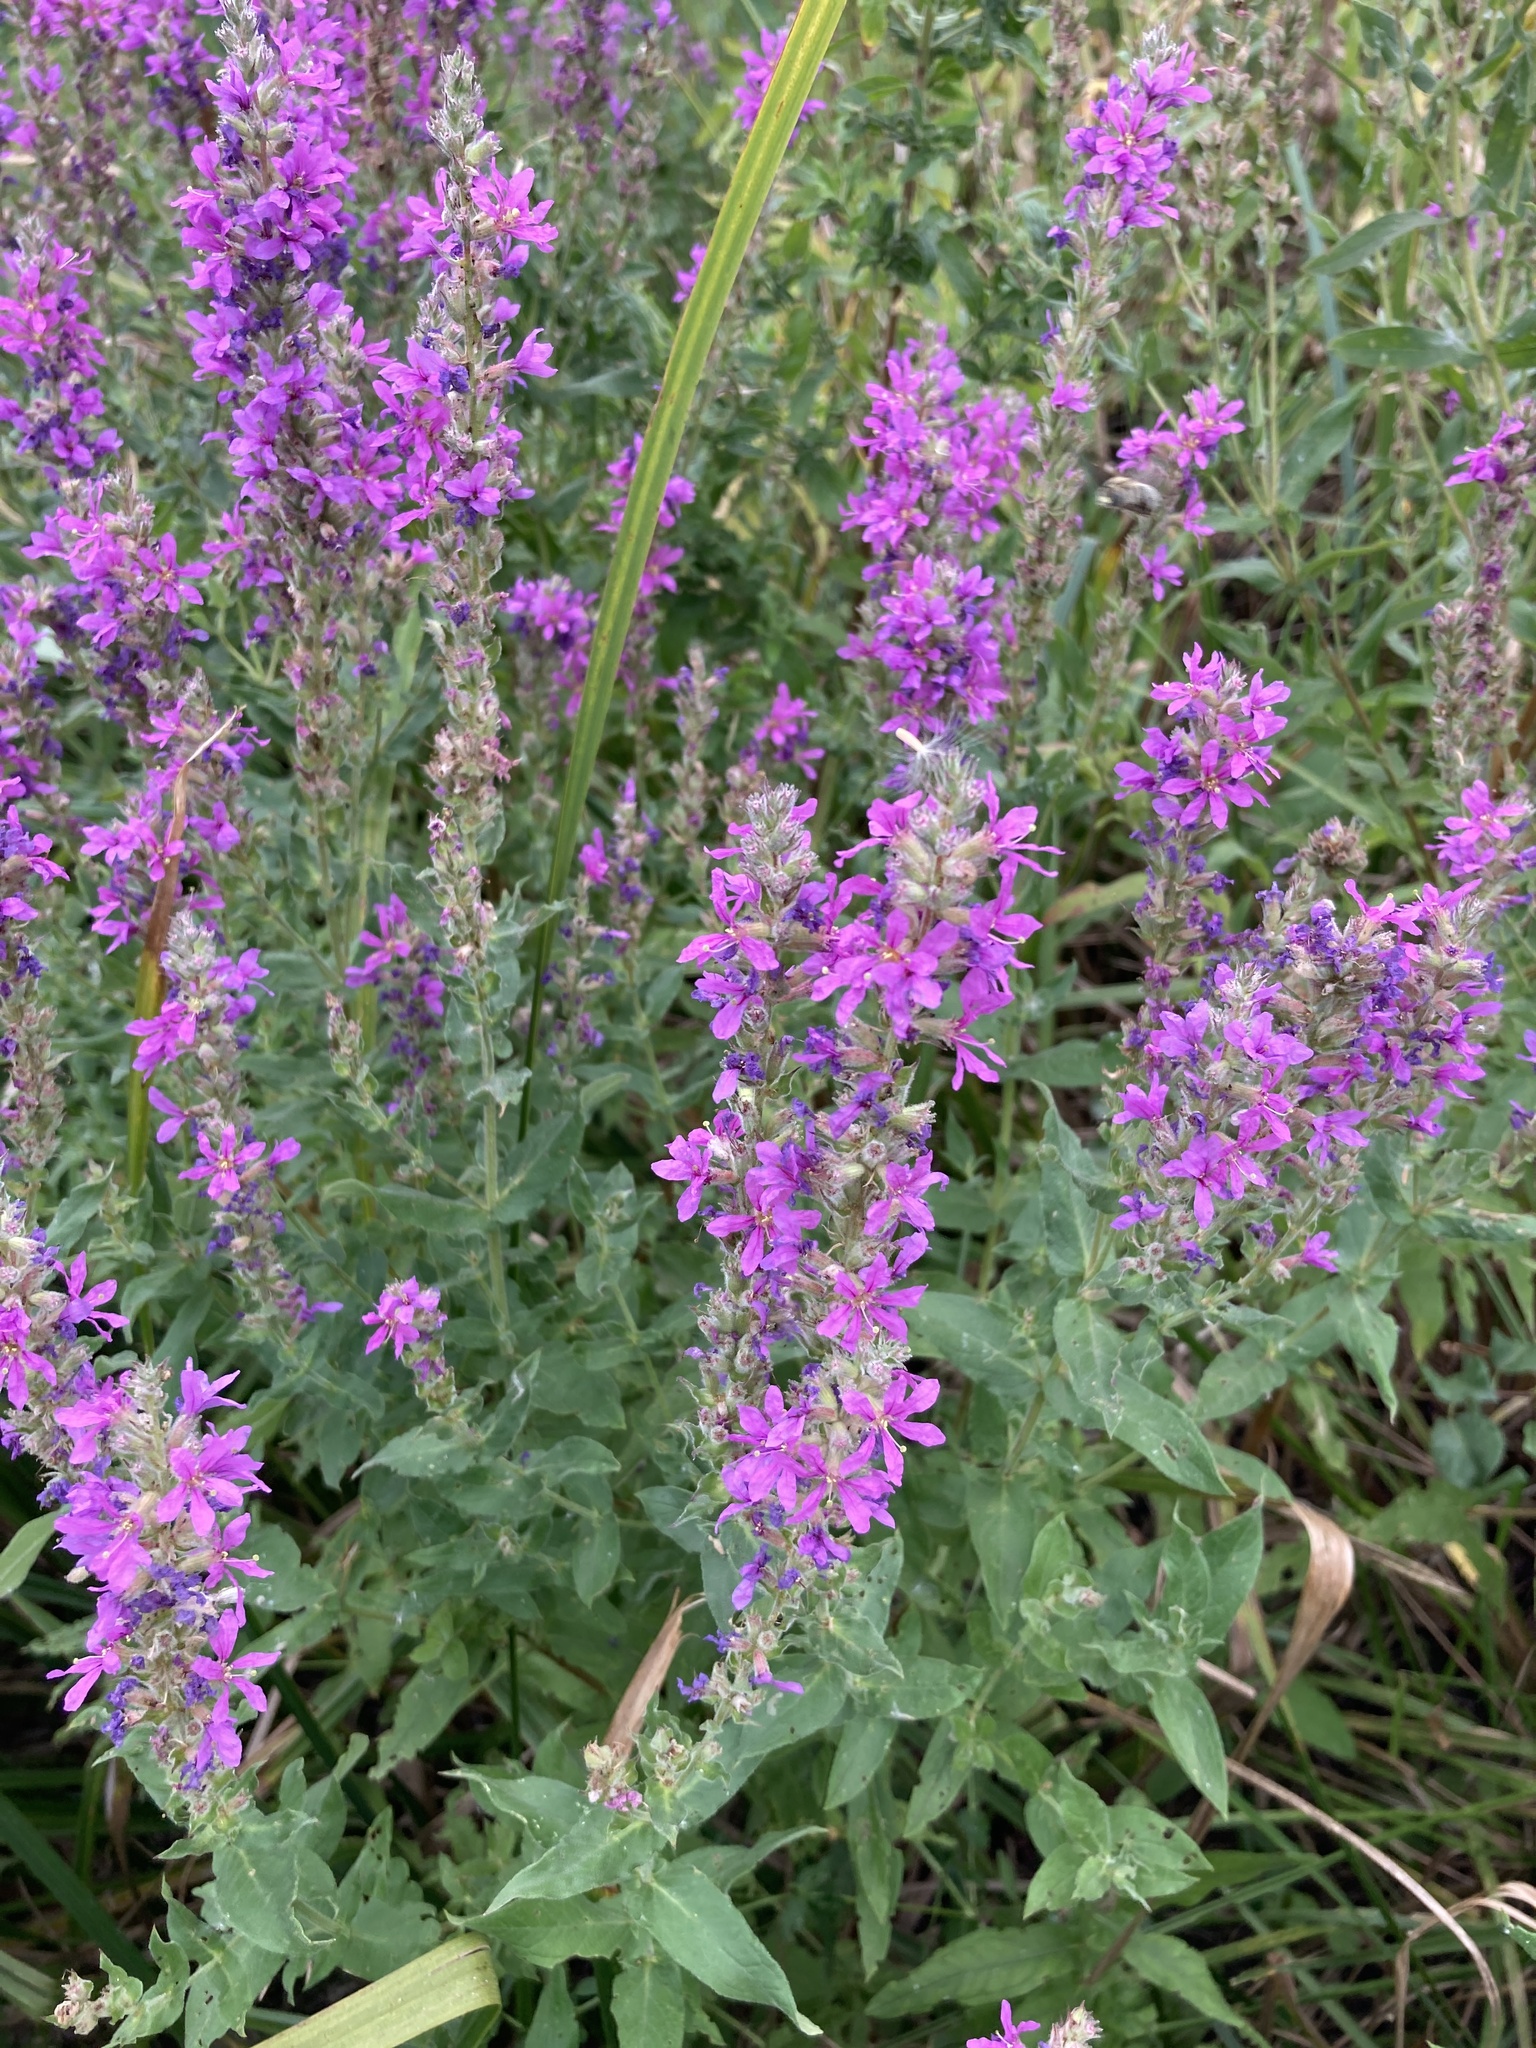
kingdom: Plantae
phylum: Tracheophyta
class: Magnoliopsida
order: Myrtales
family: Lythraceae
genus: Lythrum
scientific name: Lythrum salicaria
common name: Purple loosestrife
